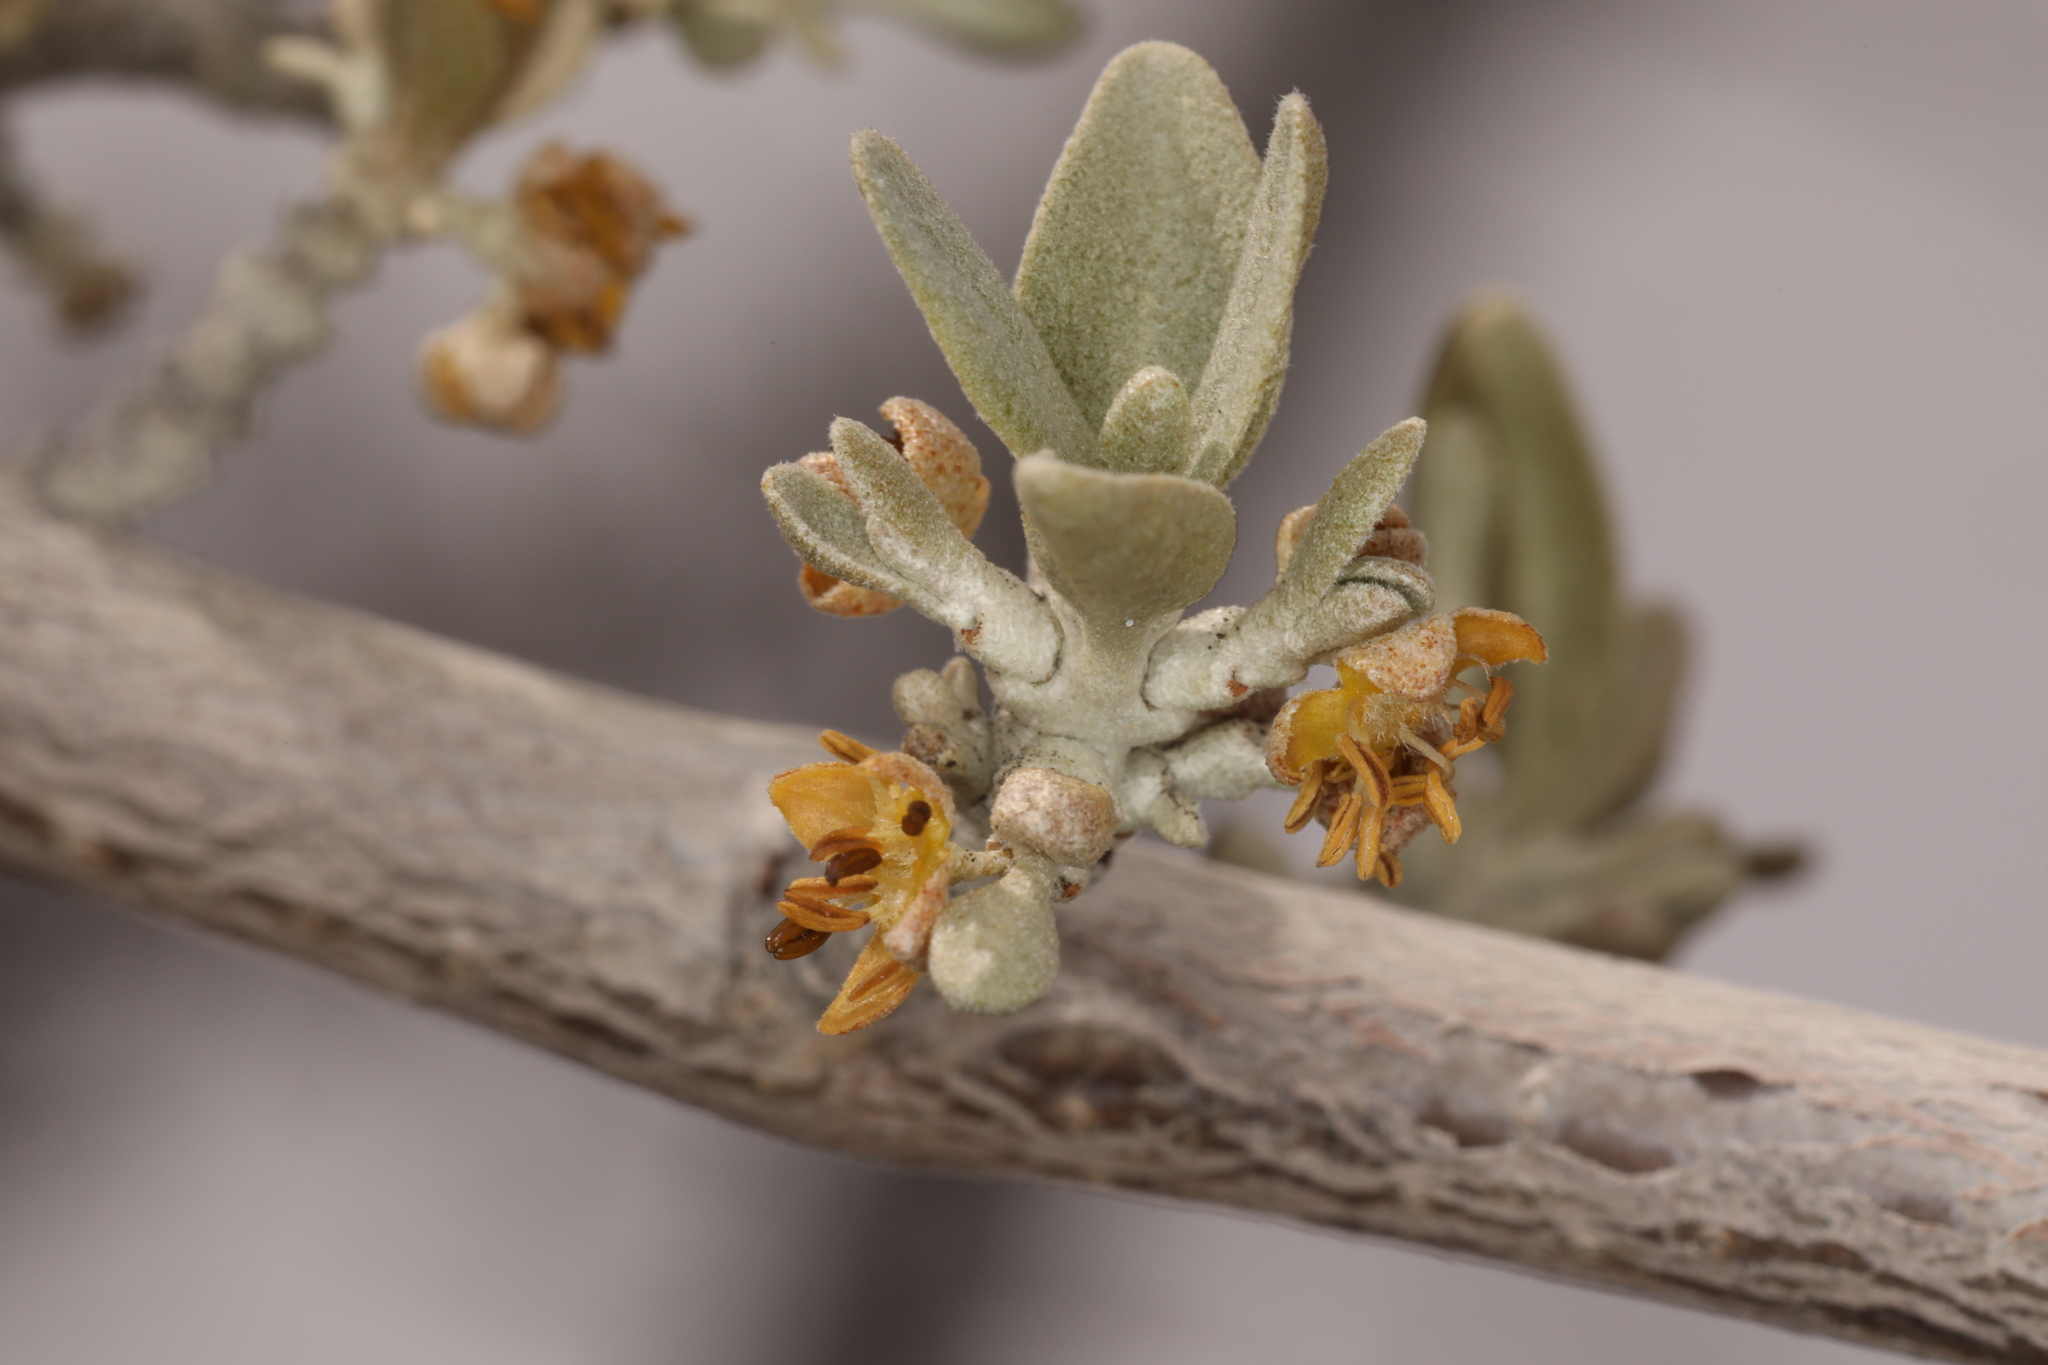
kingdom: Plantae
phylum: Tracheophyta
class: Magnoliopsida
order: Rosales
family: Elaeagnaceae
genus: Shepherdia
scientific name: Shepherdia argentea
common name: Silver buffaloberry
